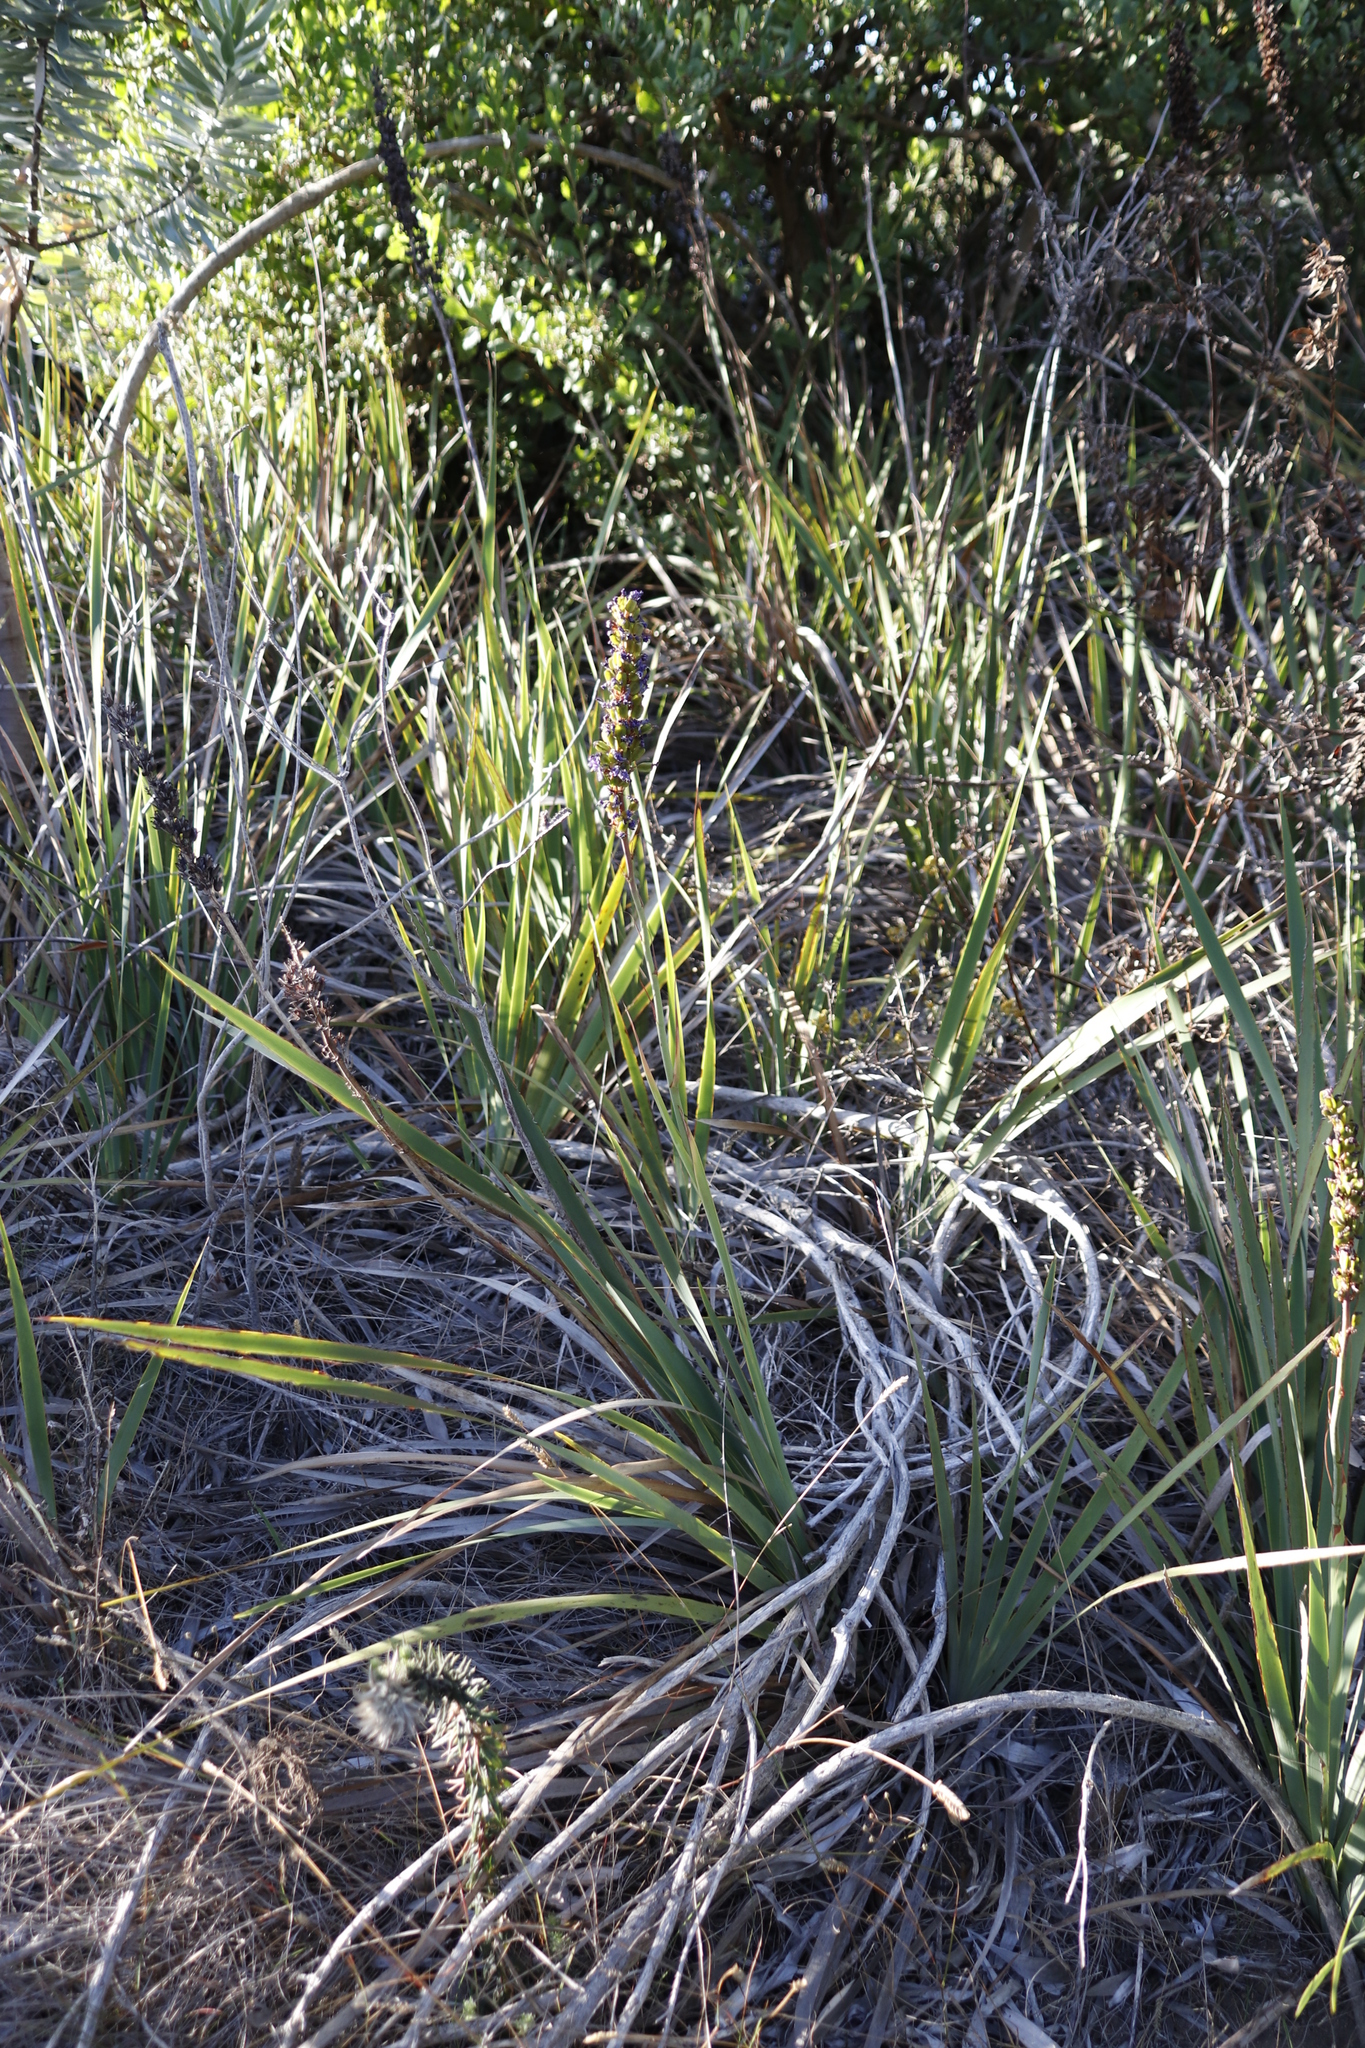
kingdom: Plantae
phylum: Tracheophyta
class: Liliopsida
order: Asparagales
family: Iridaceae
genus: Aristea
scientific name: Aristea capitata
